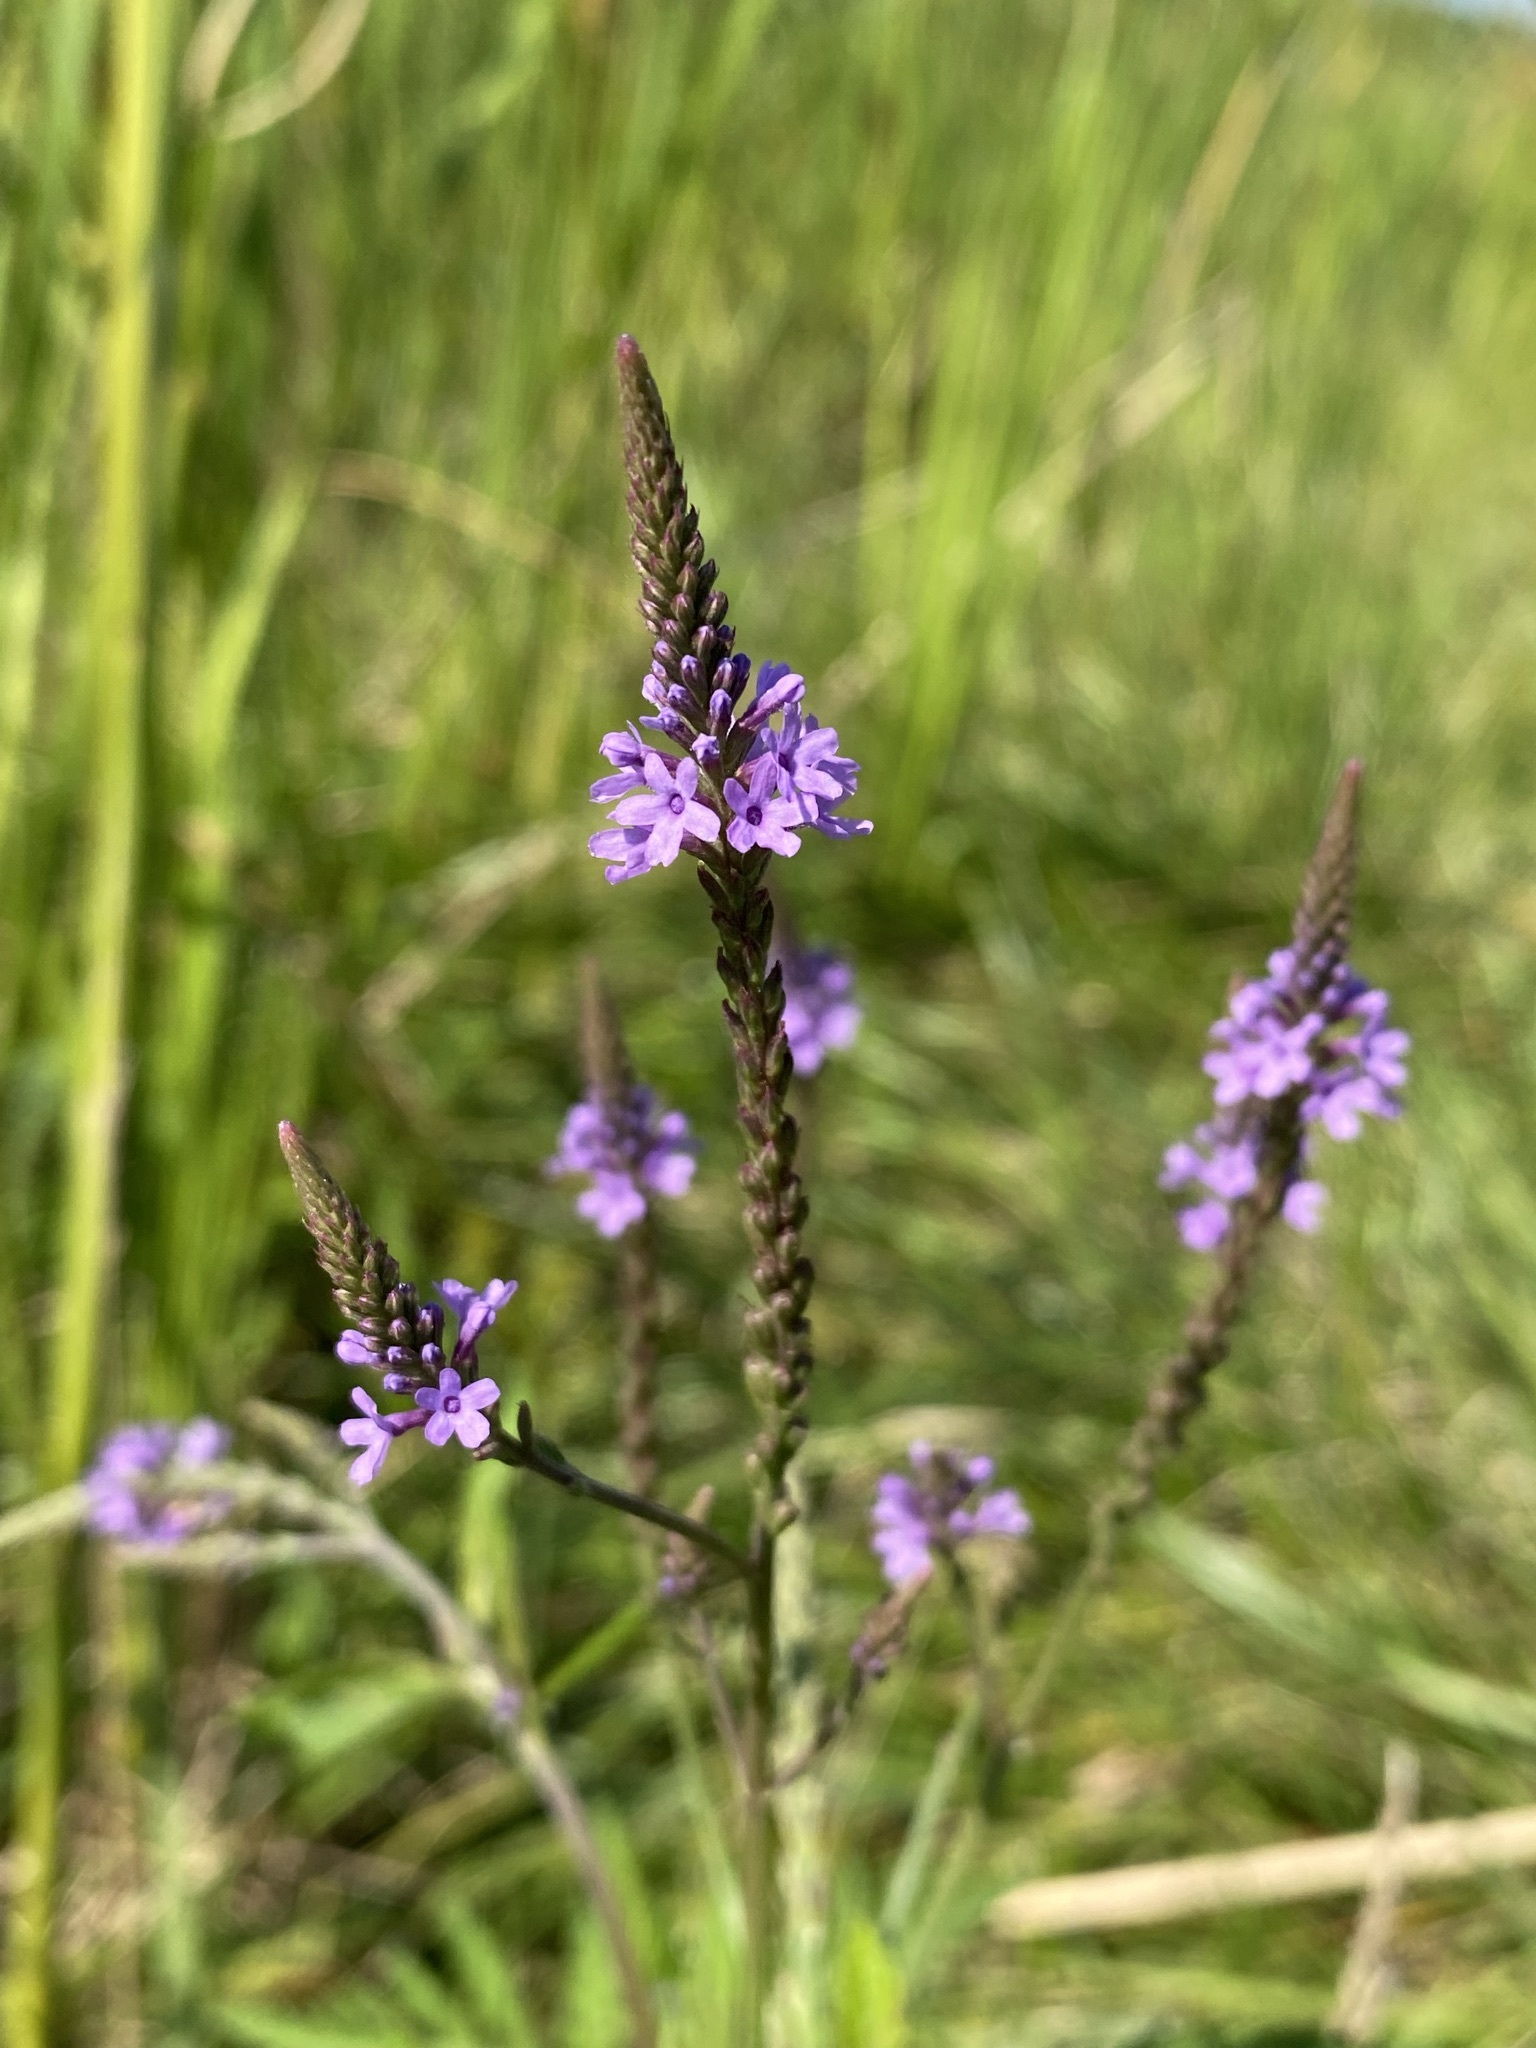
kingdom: Plantae
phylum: Tracheophyta
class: Magnoliopsida
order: Lamiales
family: Verbenaceae
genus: Verbena
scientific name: Verbena hastata
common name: American blue vervain
